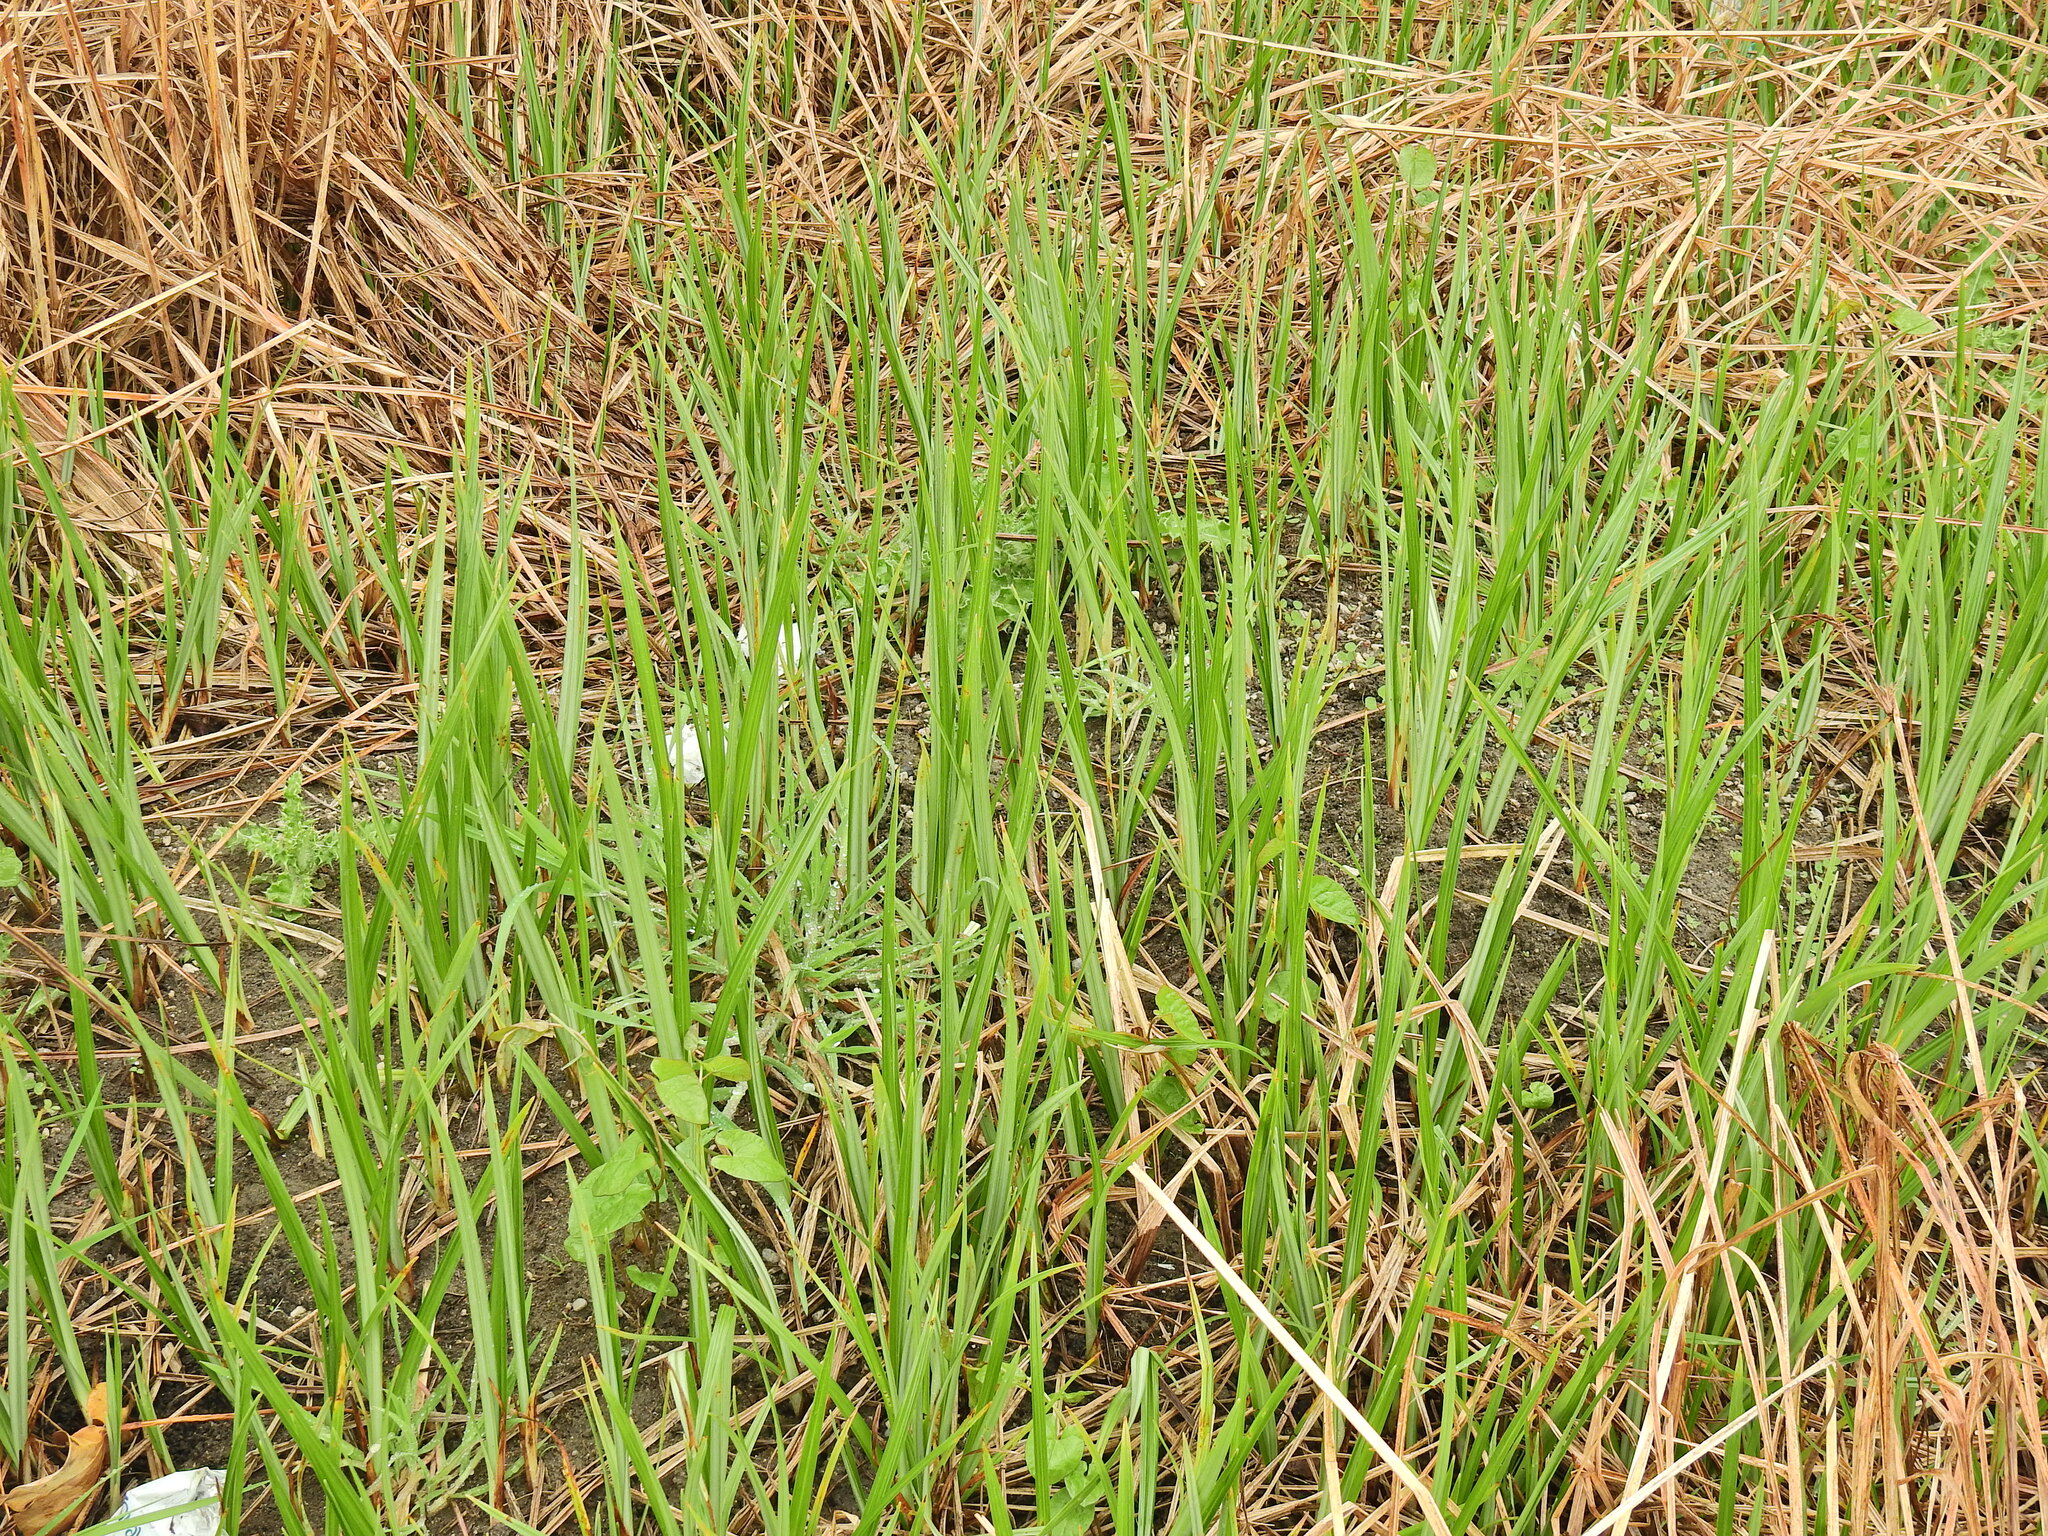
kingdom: Plantae
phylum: Tracheophyta
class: Liliopsida
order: Poales
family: Cyperaceae
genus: Cyperus
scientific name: Cyperus longus
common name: Galingale
